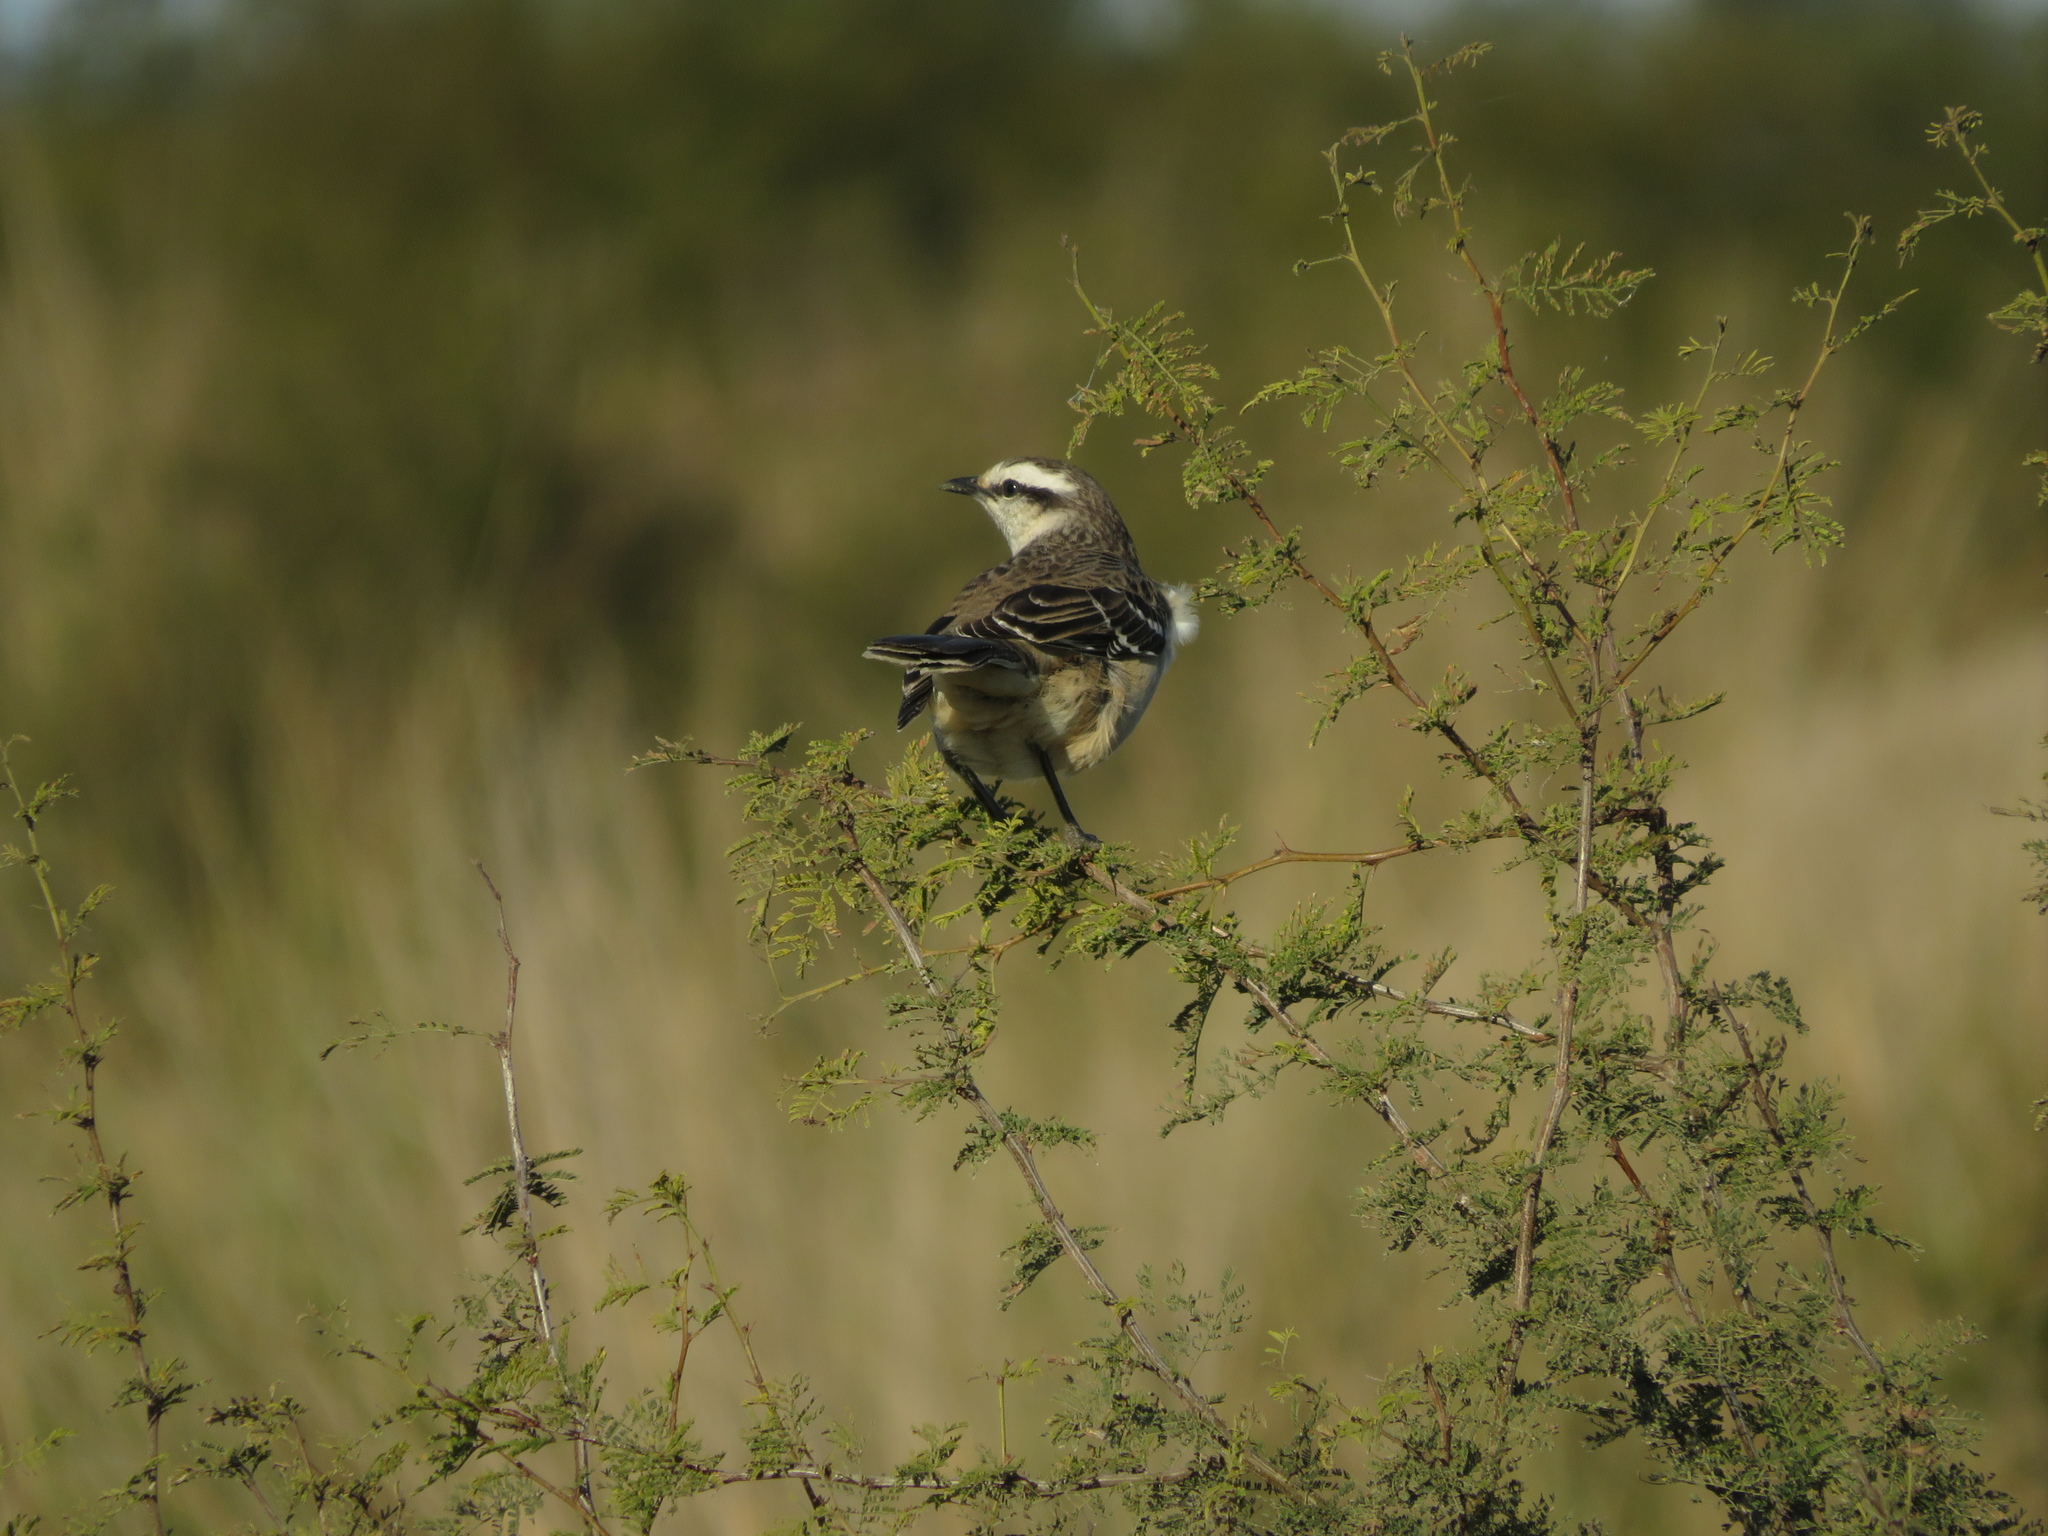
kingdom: Animalia
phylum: Chordata
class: Aves
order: Passeriformes
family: Mimidae
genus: Mimus
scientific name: Mimus saturninus
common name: Chalk-browed mockingbird
